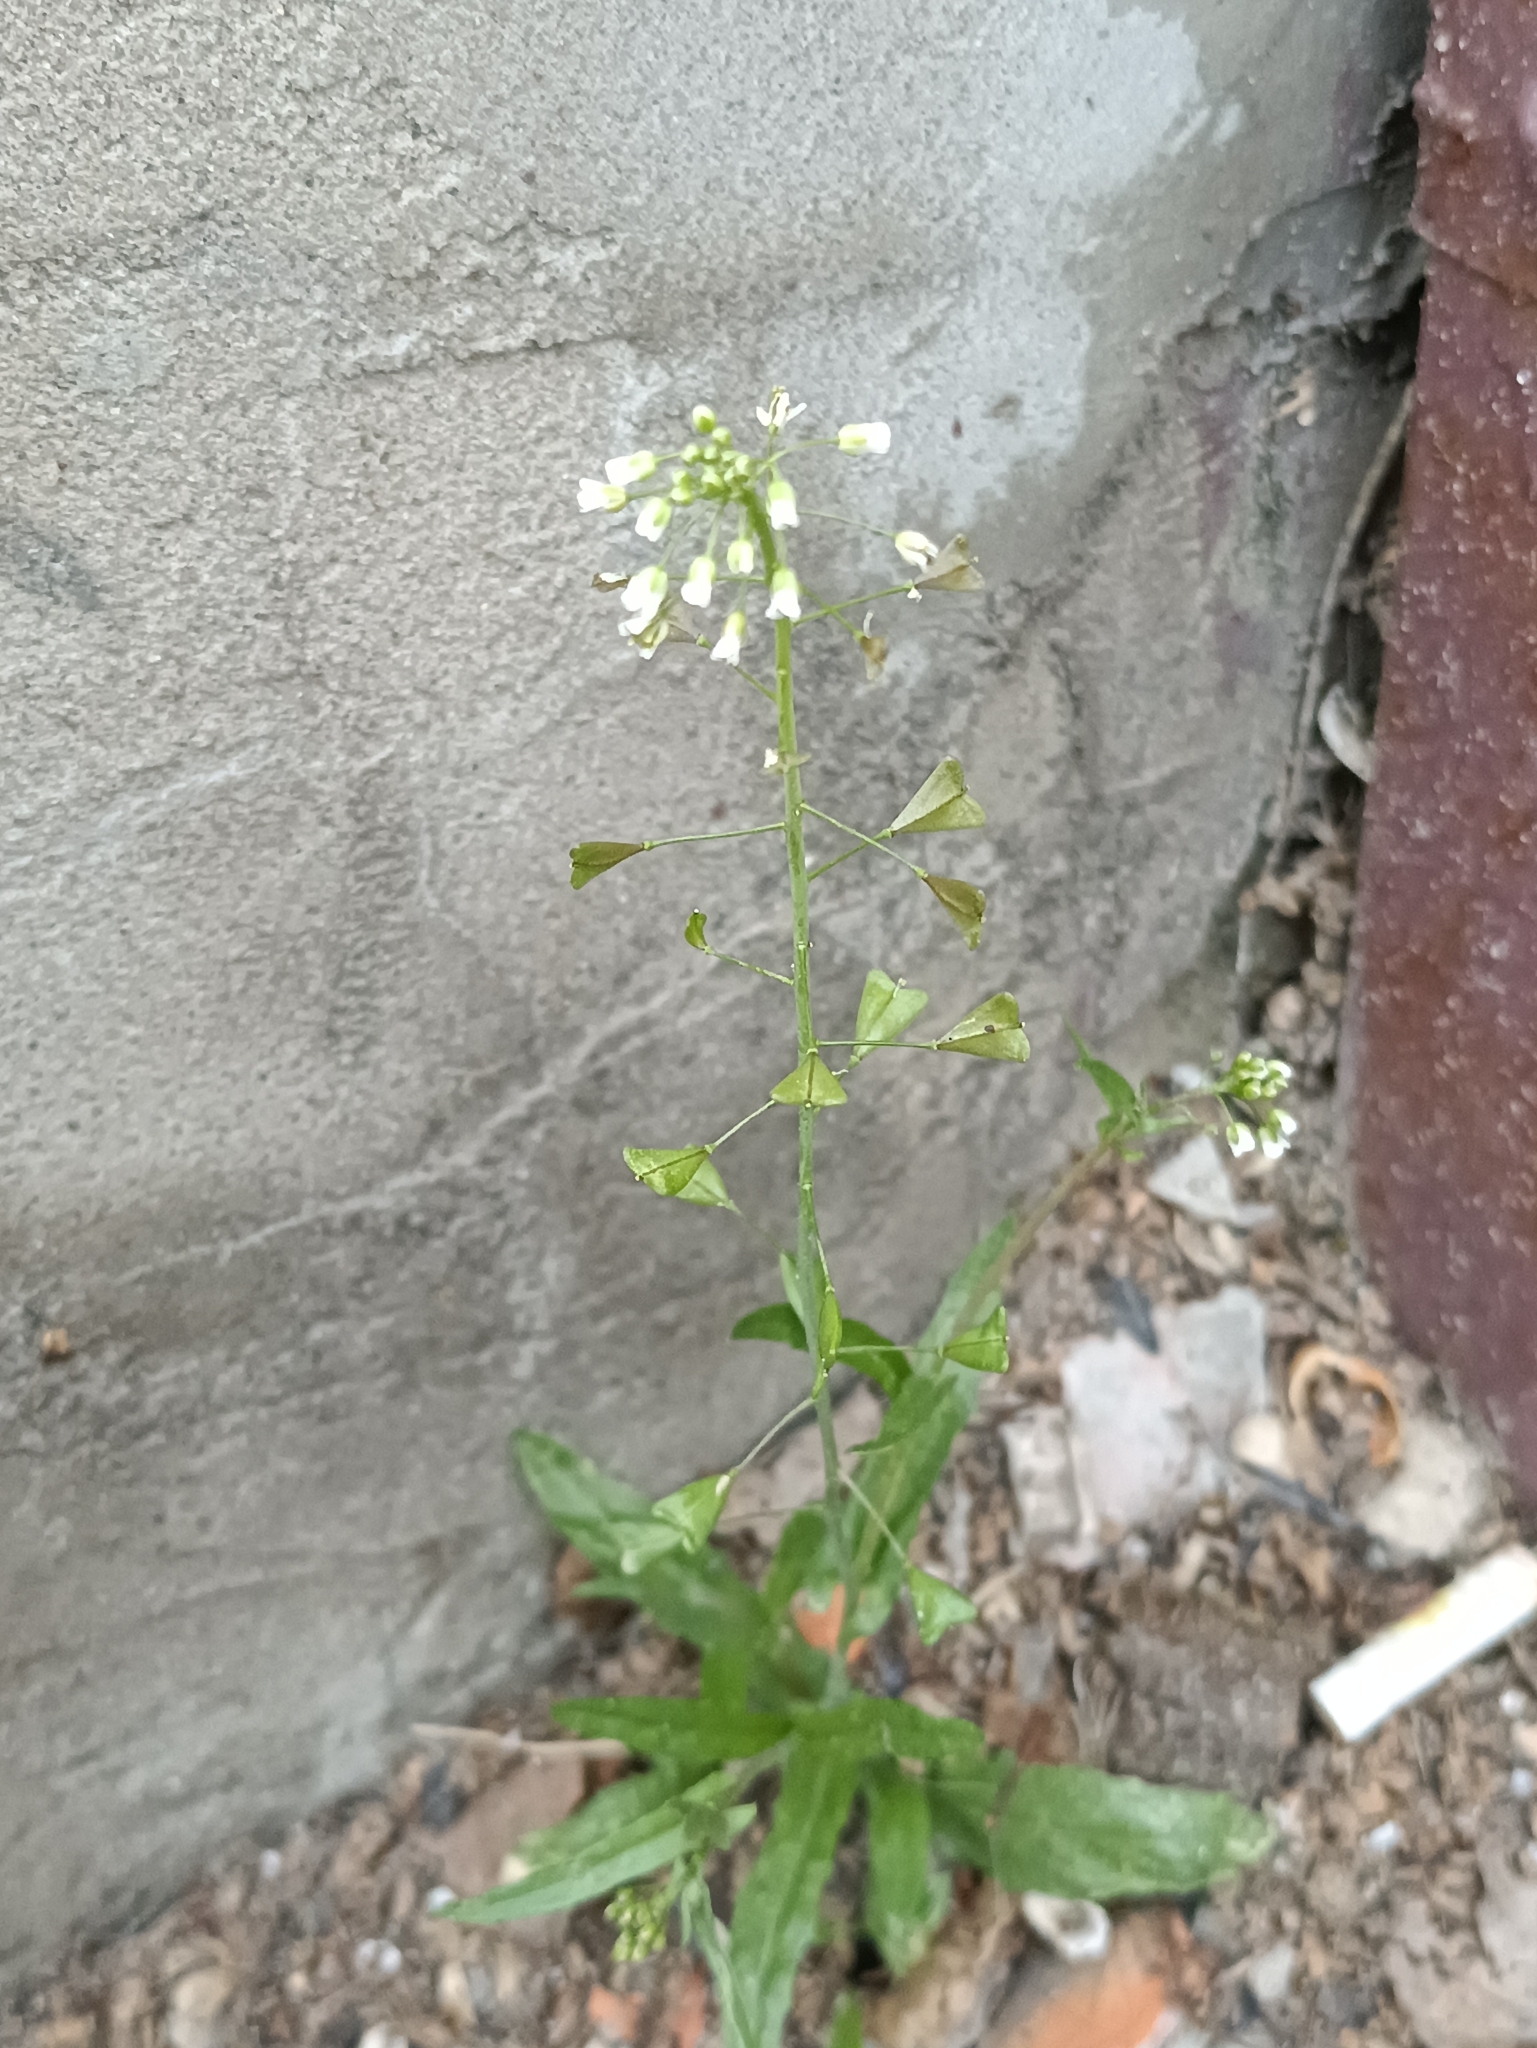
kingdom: Plantae
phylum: Tracheophyta
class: Magnoliopsida
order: Brassicales
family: Brassicaceae
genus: Capsella
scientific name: Capsella bursa-pastoris
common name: Shepherd's purse
